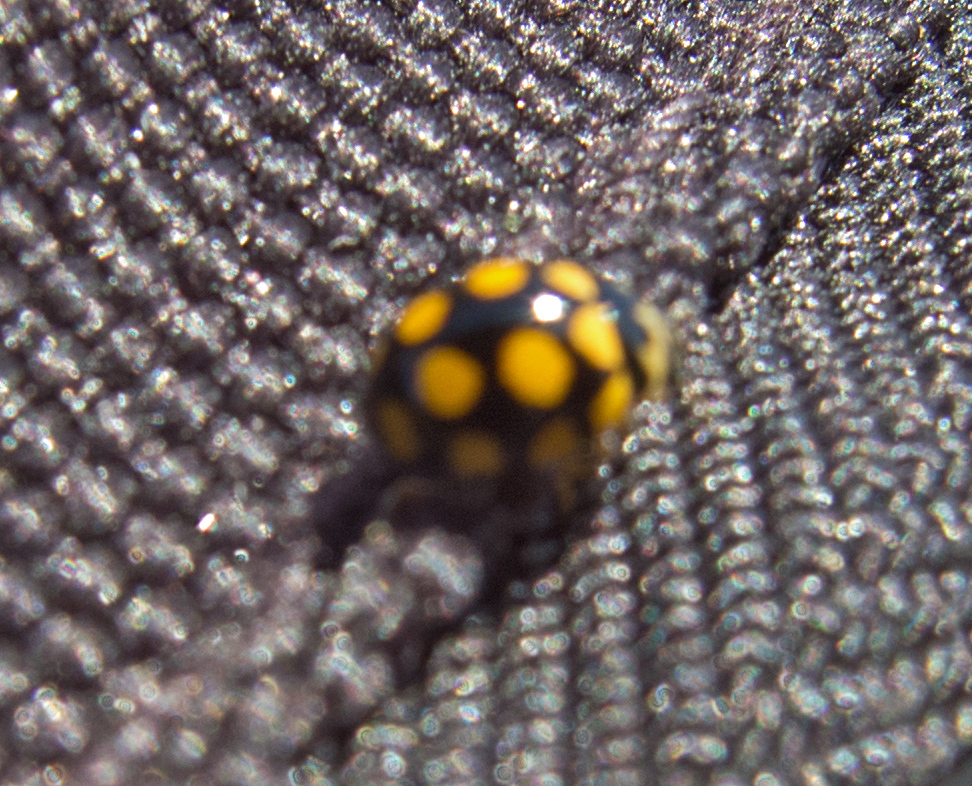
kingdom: Animalia
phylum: Arthropoda
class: Insecta
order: Coleoptera
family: Coccinellidae
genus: Coccinula
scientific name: Coccinula quatuordecimpustulata
